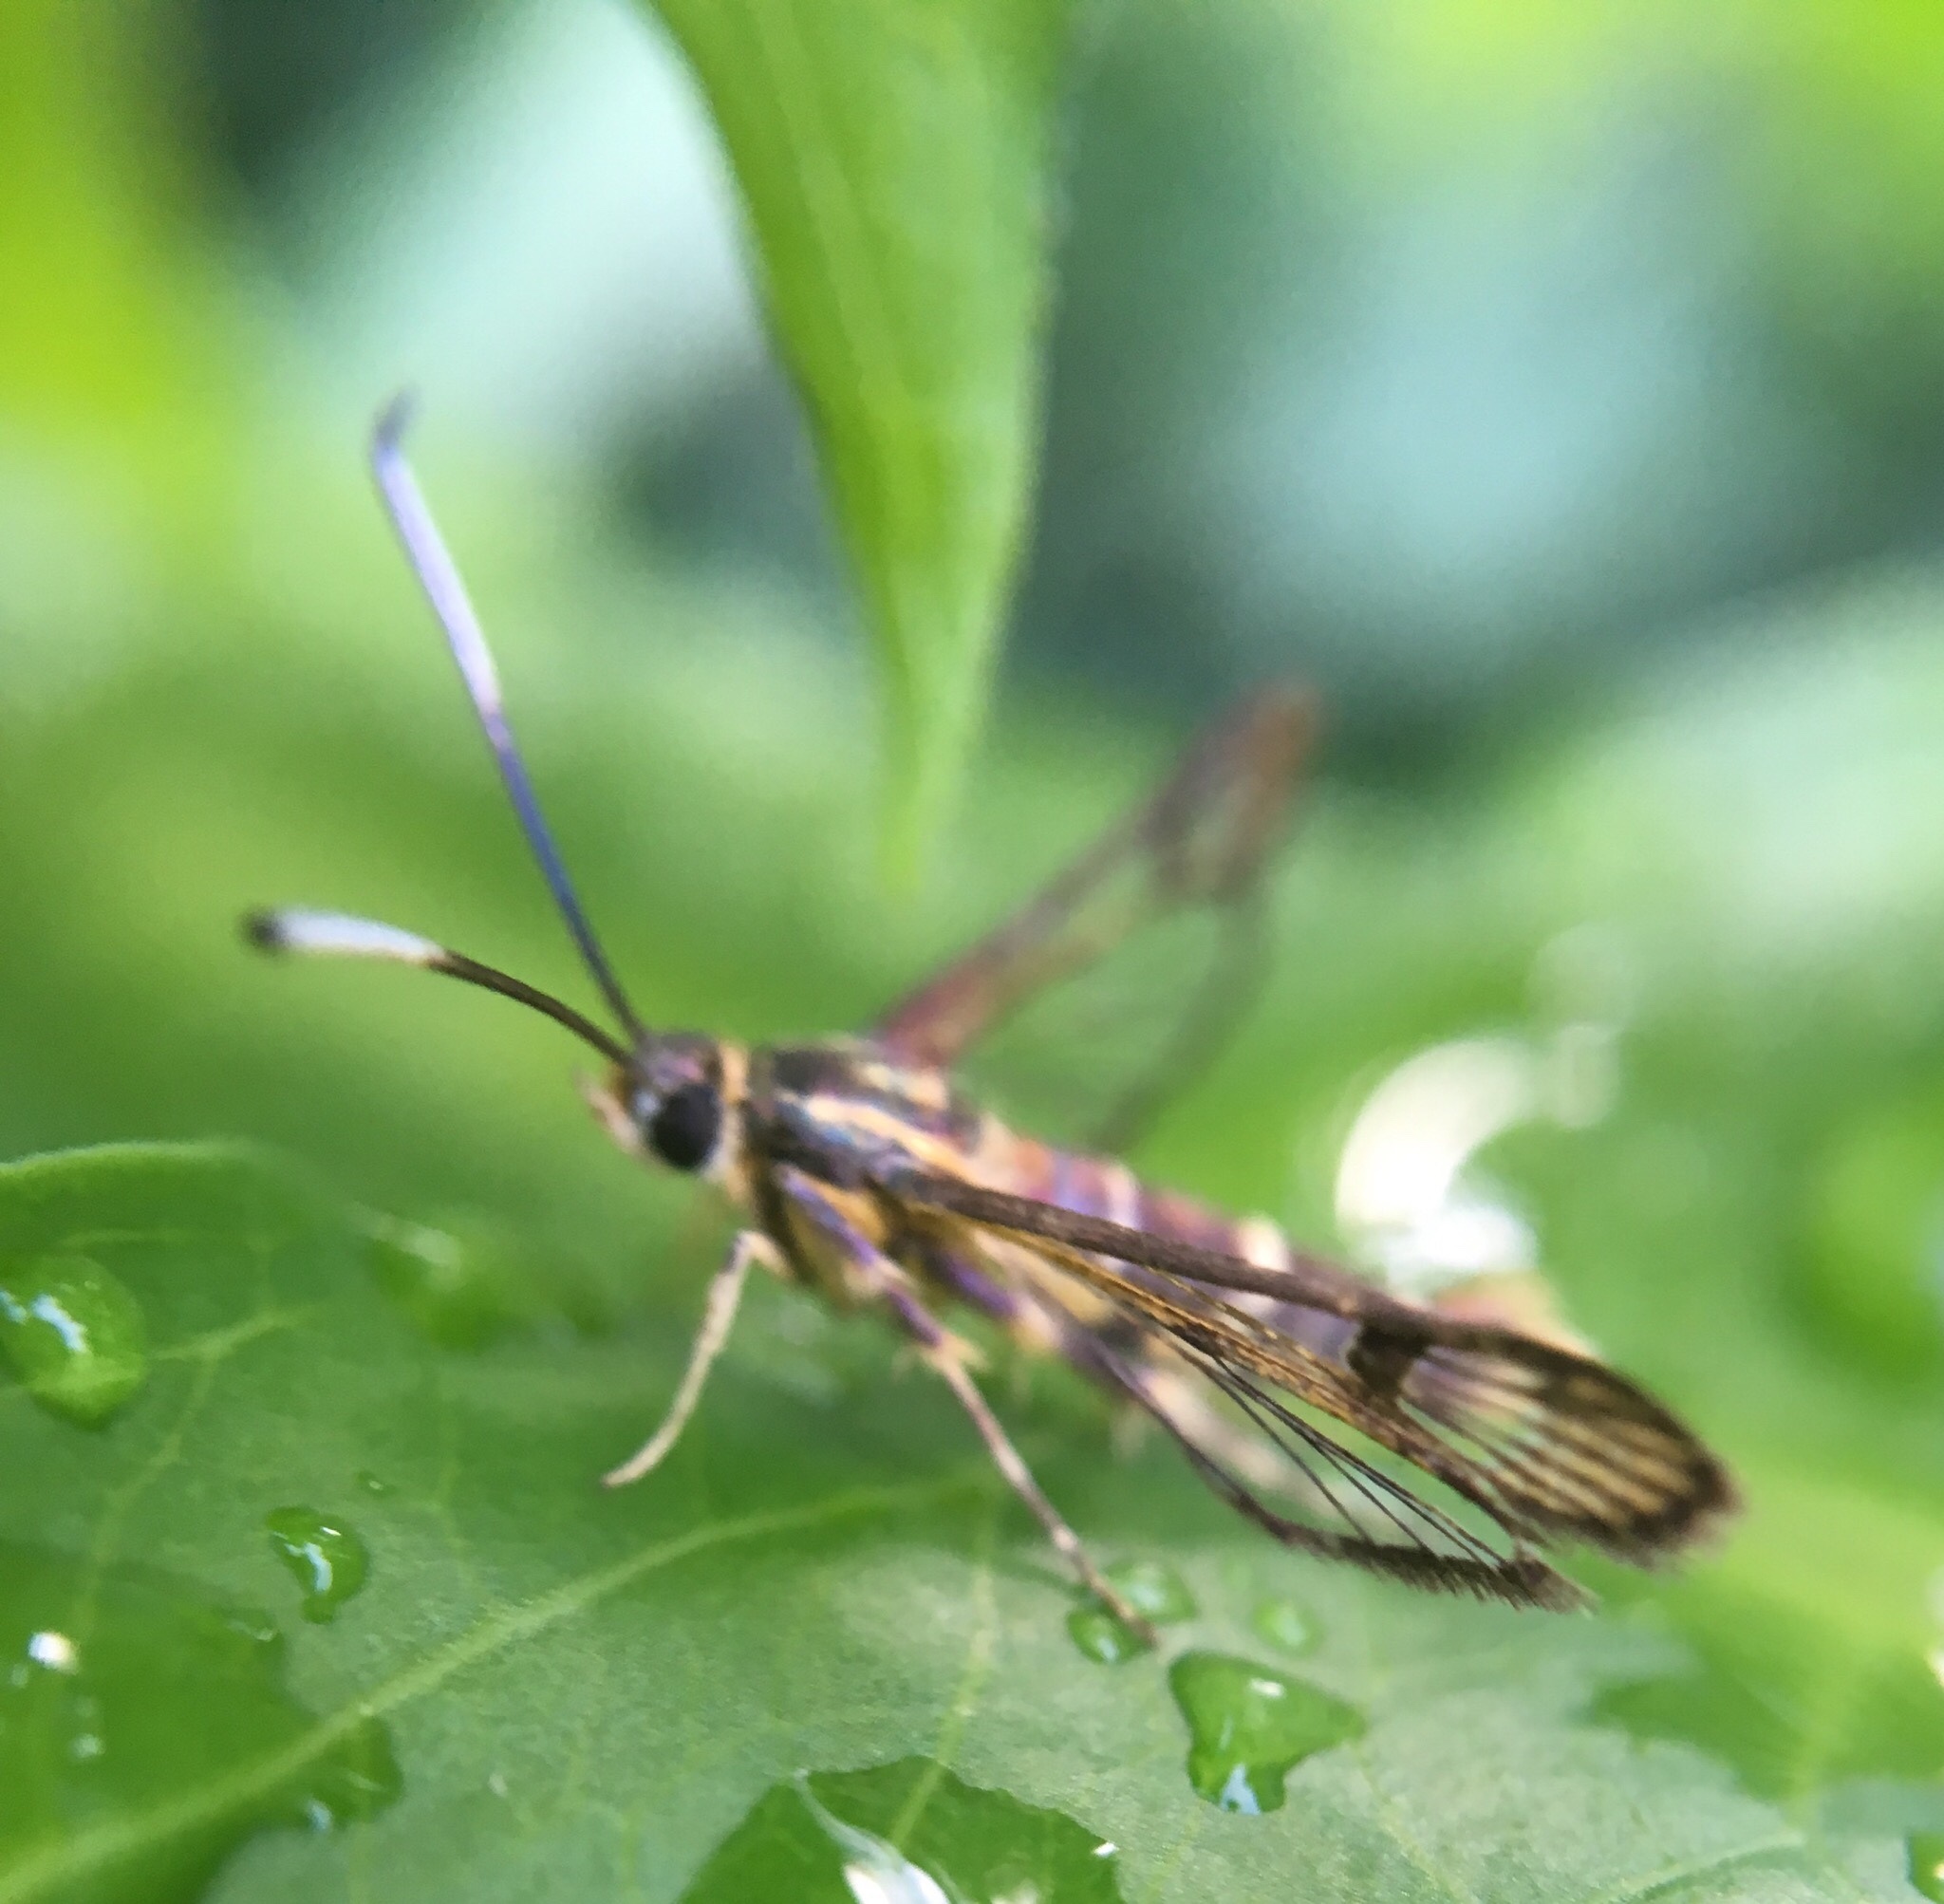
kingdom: Animalia
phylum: Arthropoda
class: Insecta
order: Lepidoptera
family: Sesiidae
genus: Carmenta
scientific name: Carmenta bassiformis
